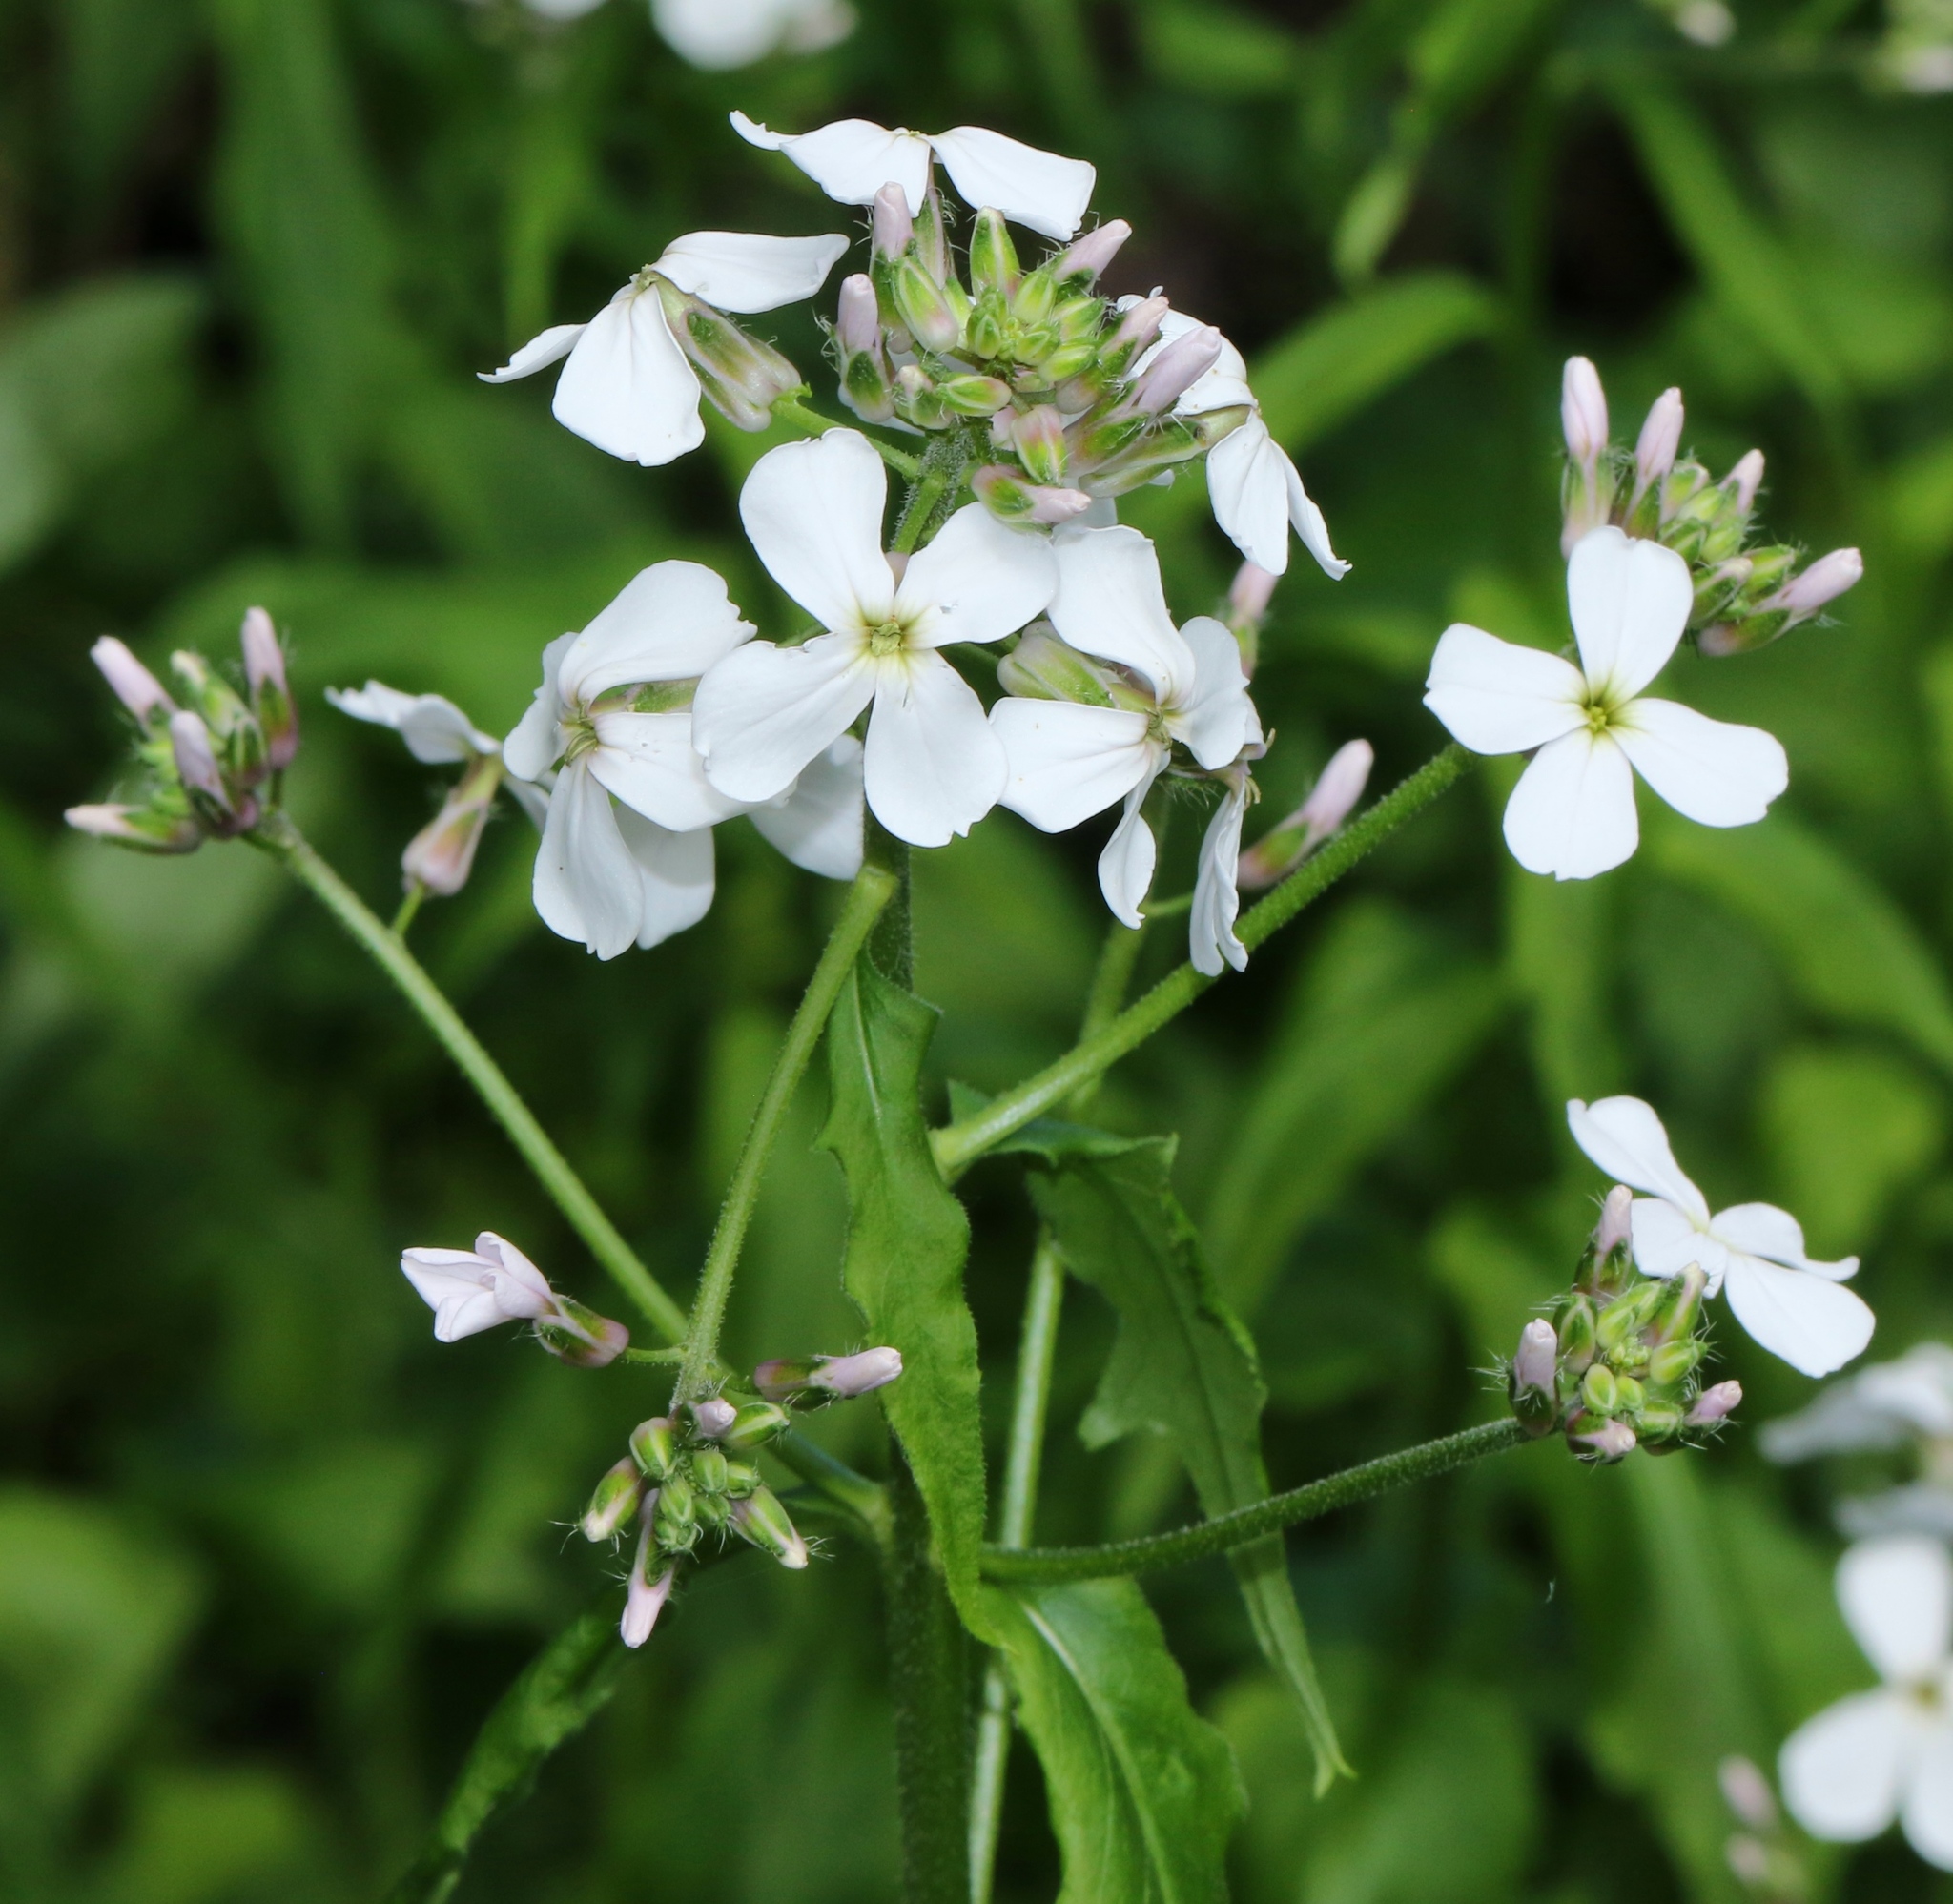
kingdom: Plantae
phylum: Tracheophyta
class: Magnoliopsida
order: Brassicales
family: Brassicaceae
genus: Hesperis
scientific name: Hesperis matronalis
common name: Dame's-violet
